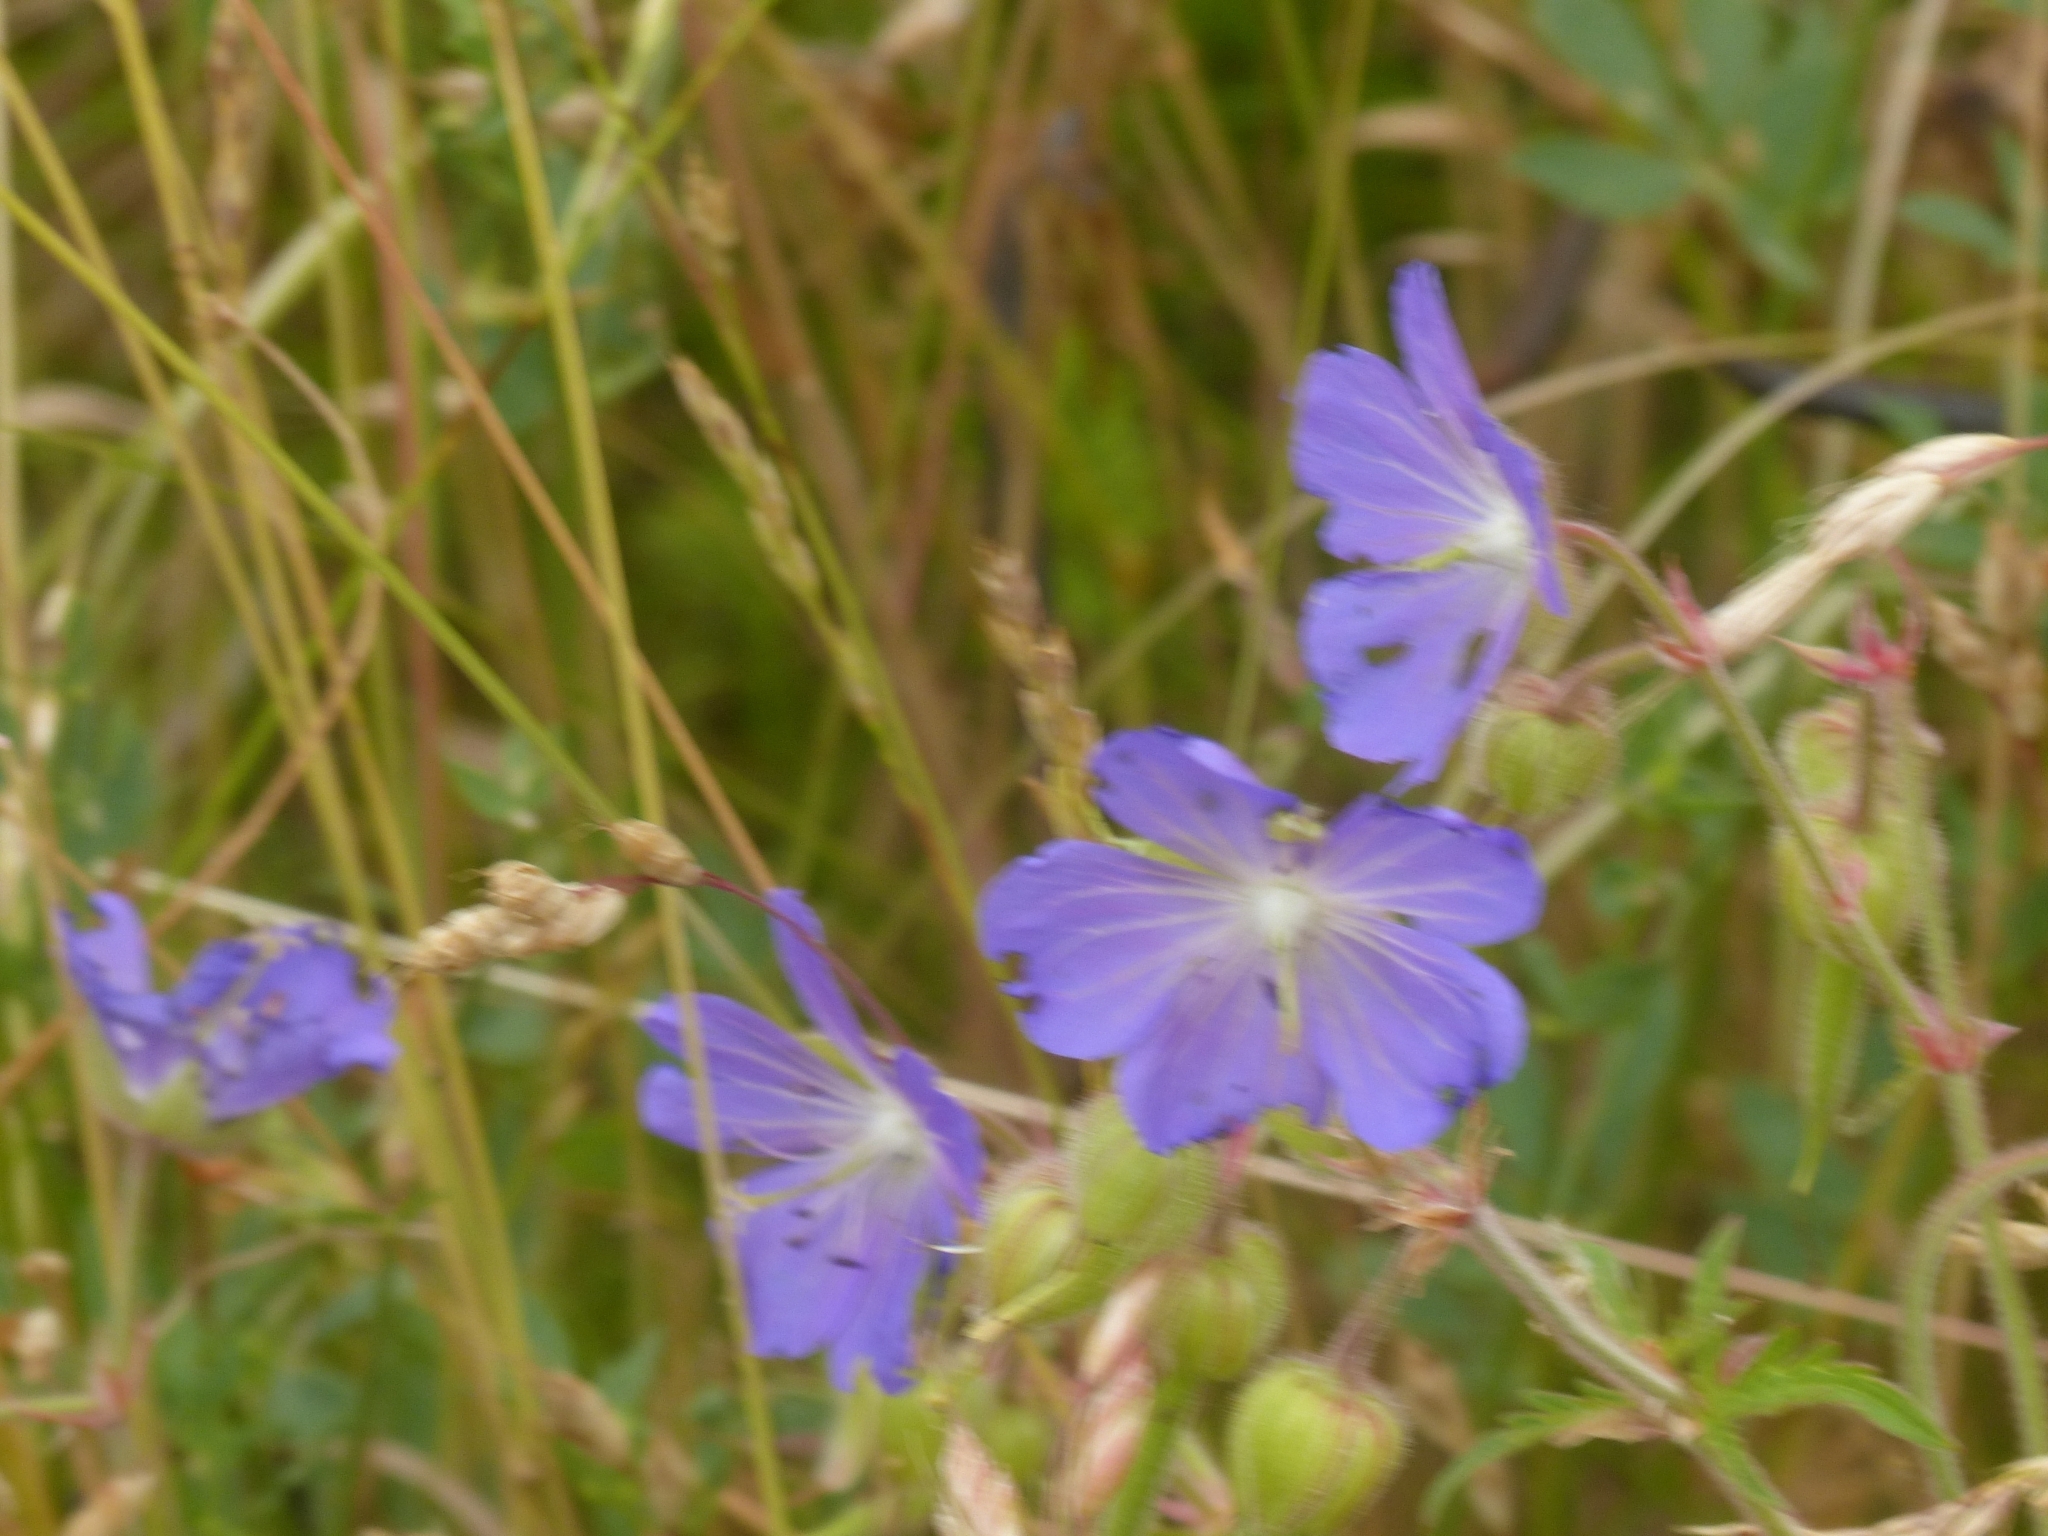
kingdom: Plantae
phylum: Tracheophyta
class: Magnoliopsida
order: Geraniales
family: Geraniaceae
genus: Geranium
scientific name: Geranium pratense
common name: Meadow crane's-bill
